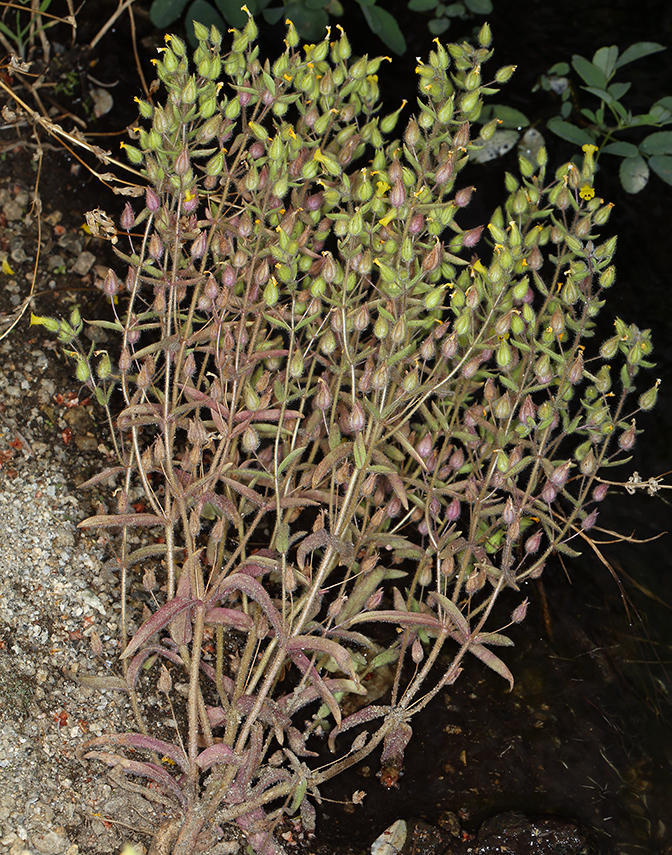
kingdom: Plantae
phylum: Tracheophyta
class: Magnoliopsida
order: Lamiales
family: Phrymaceae
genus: Mimetanthe
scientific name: Mimetanthe pilosa
